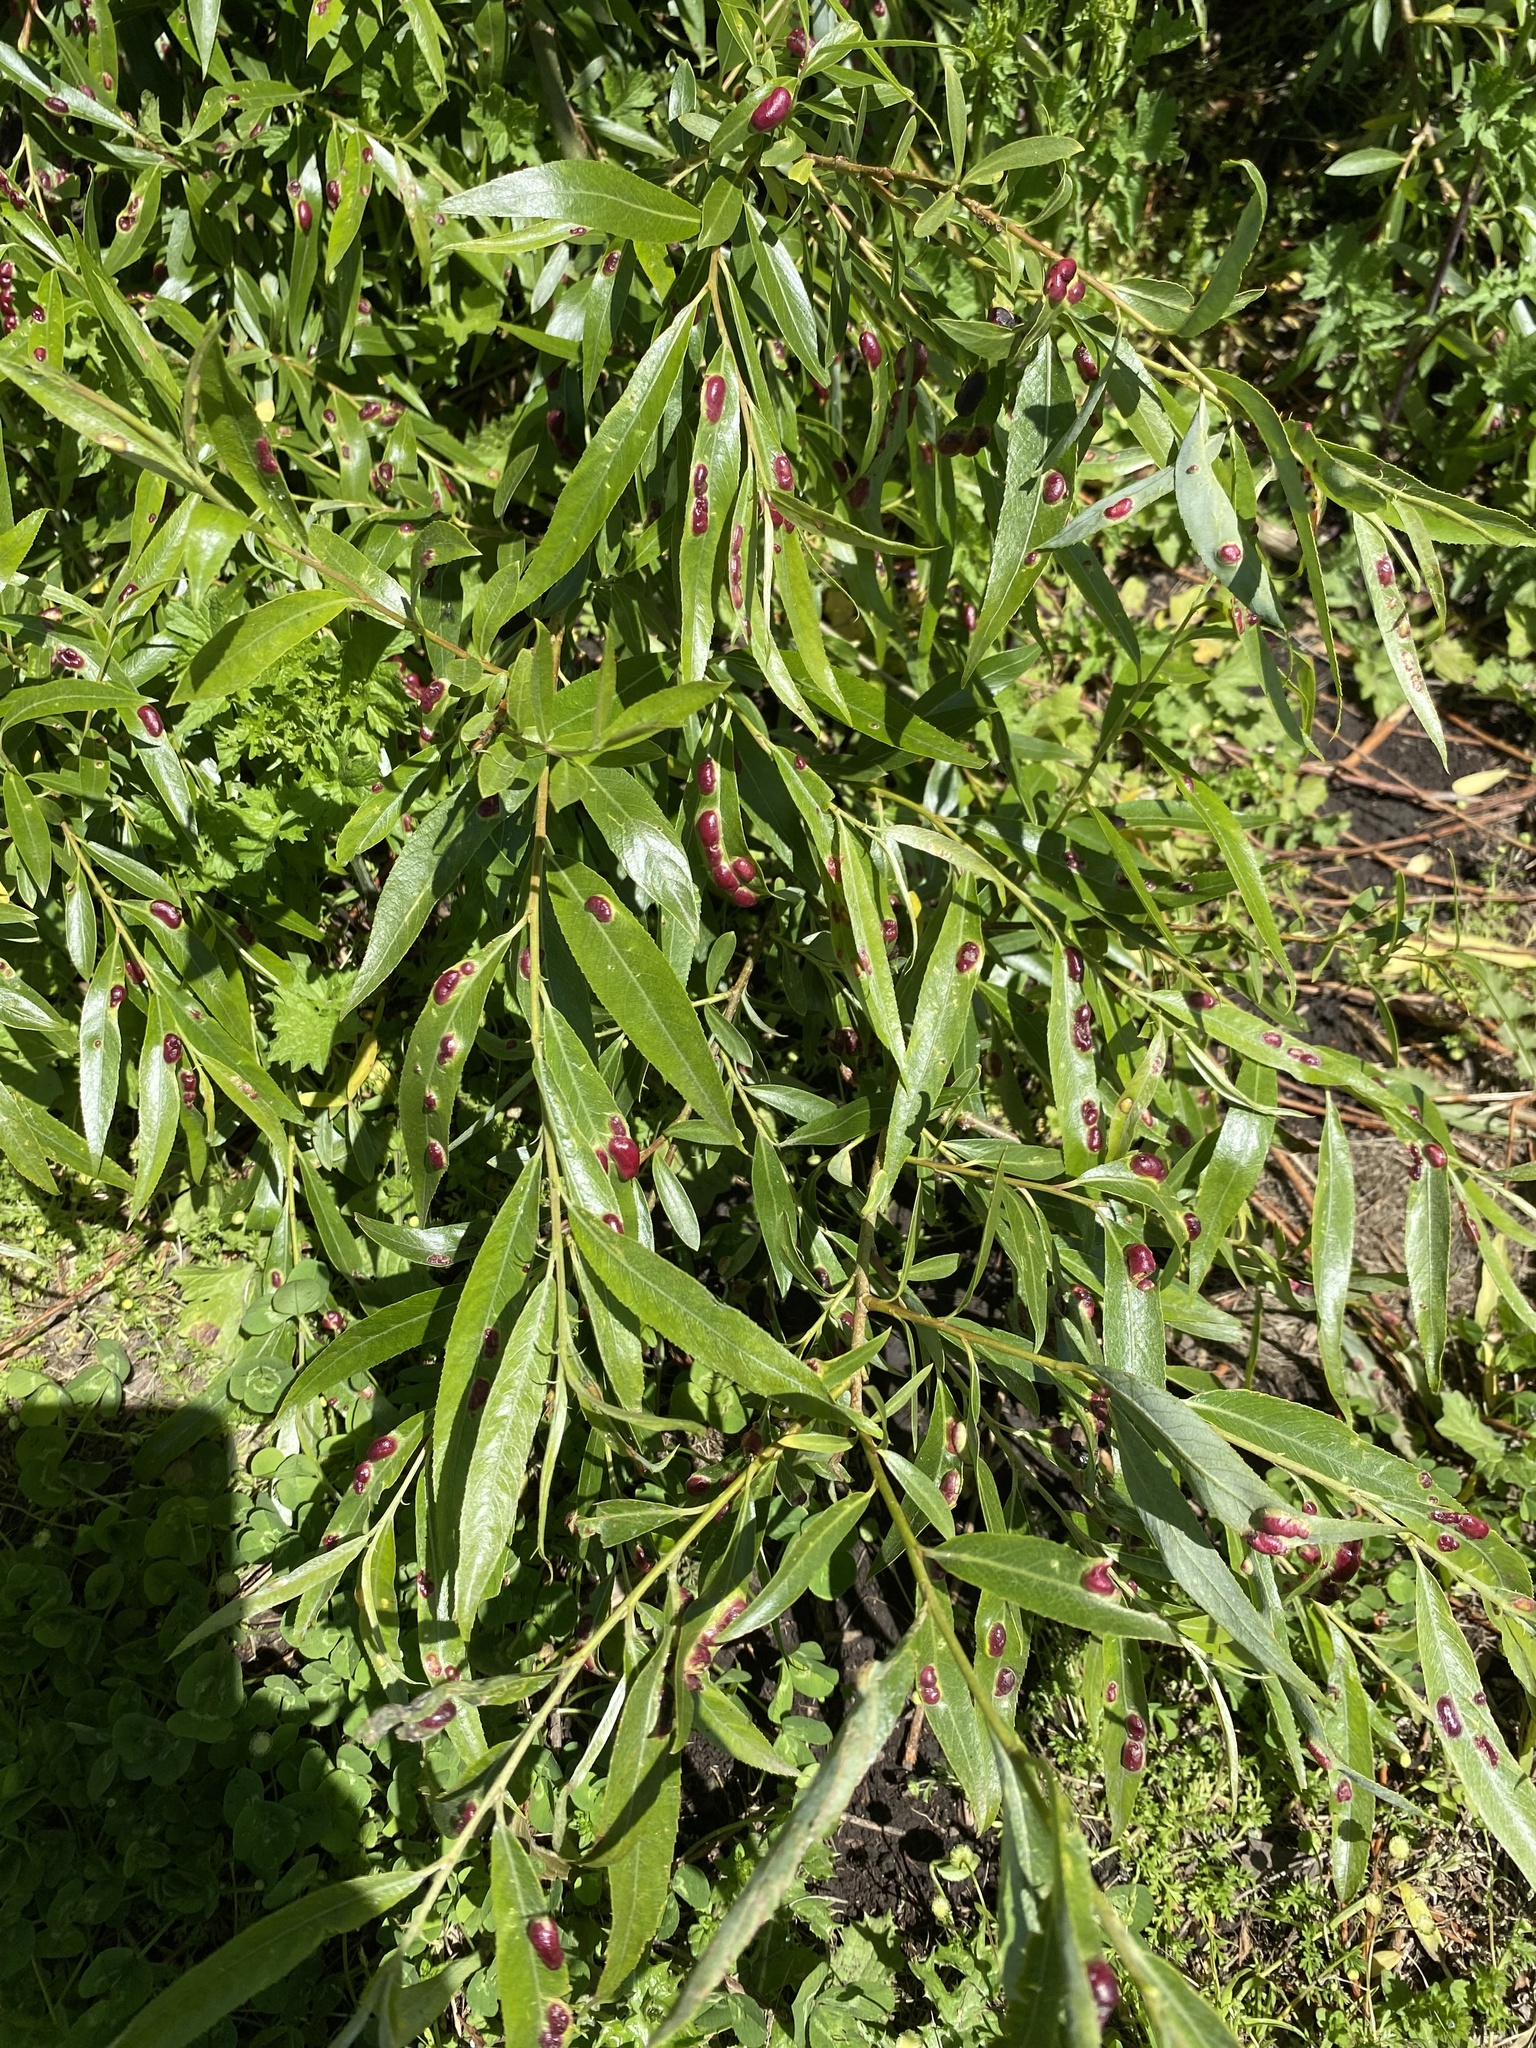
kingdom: Animalia
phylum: Arthropoda
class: Insecta
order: Hymenoptera
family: Tenthredinidae
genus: Pontania
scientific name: Pontania proxima
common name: Common sawfly
